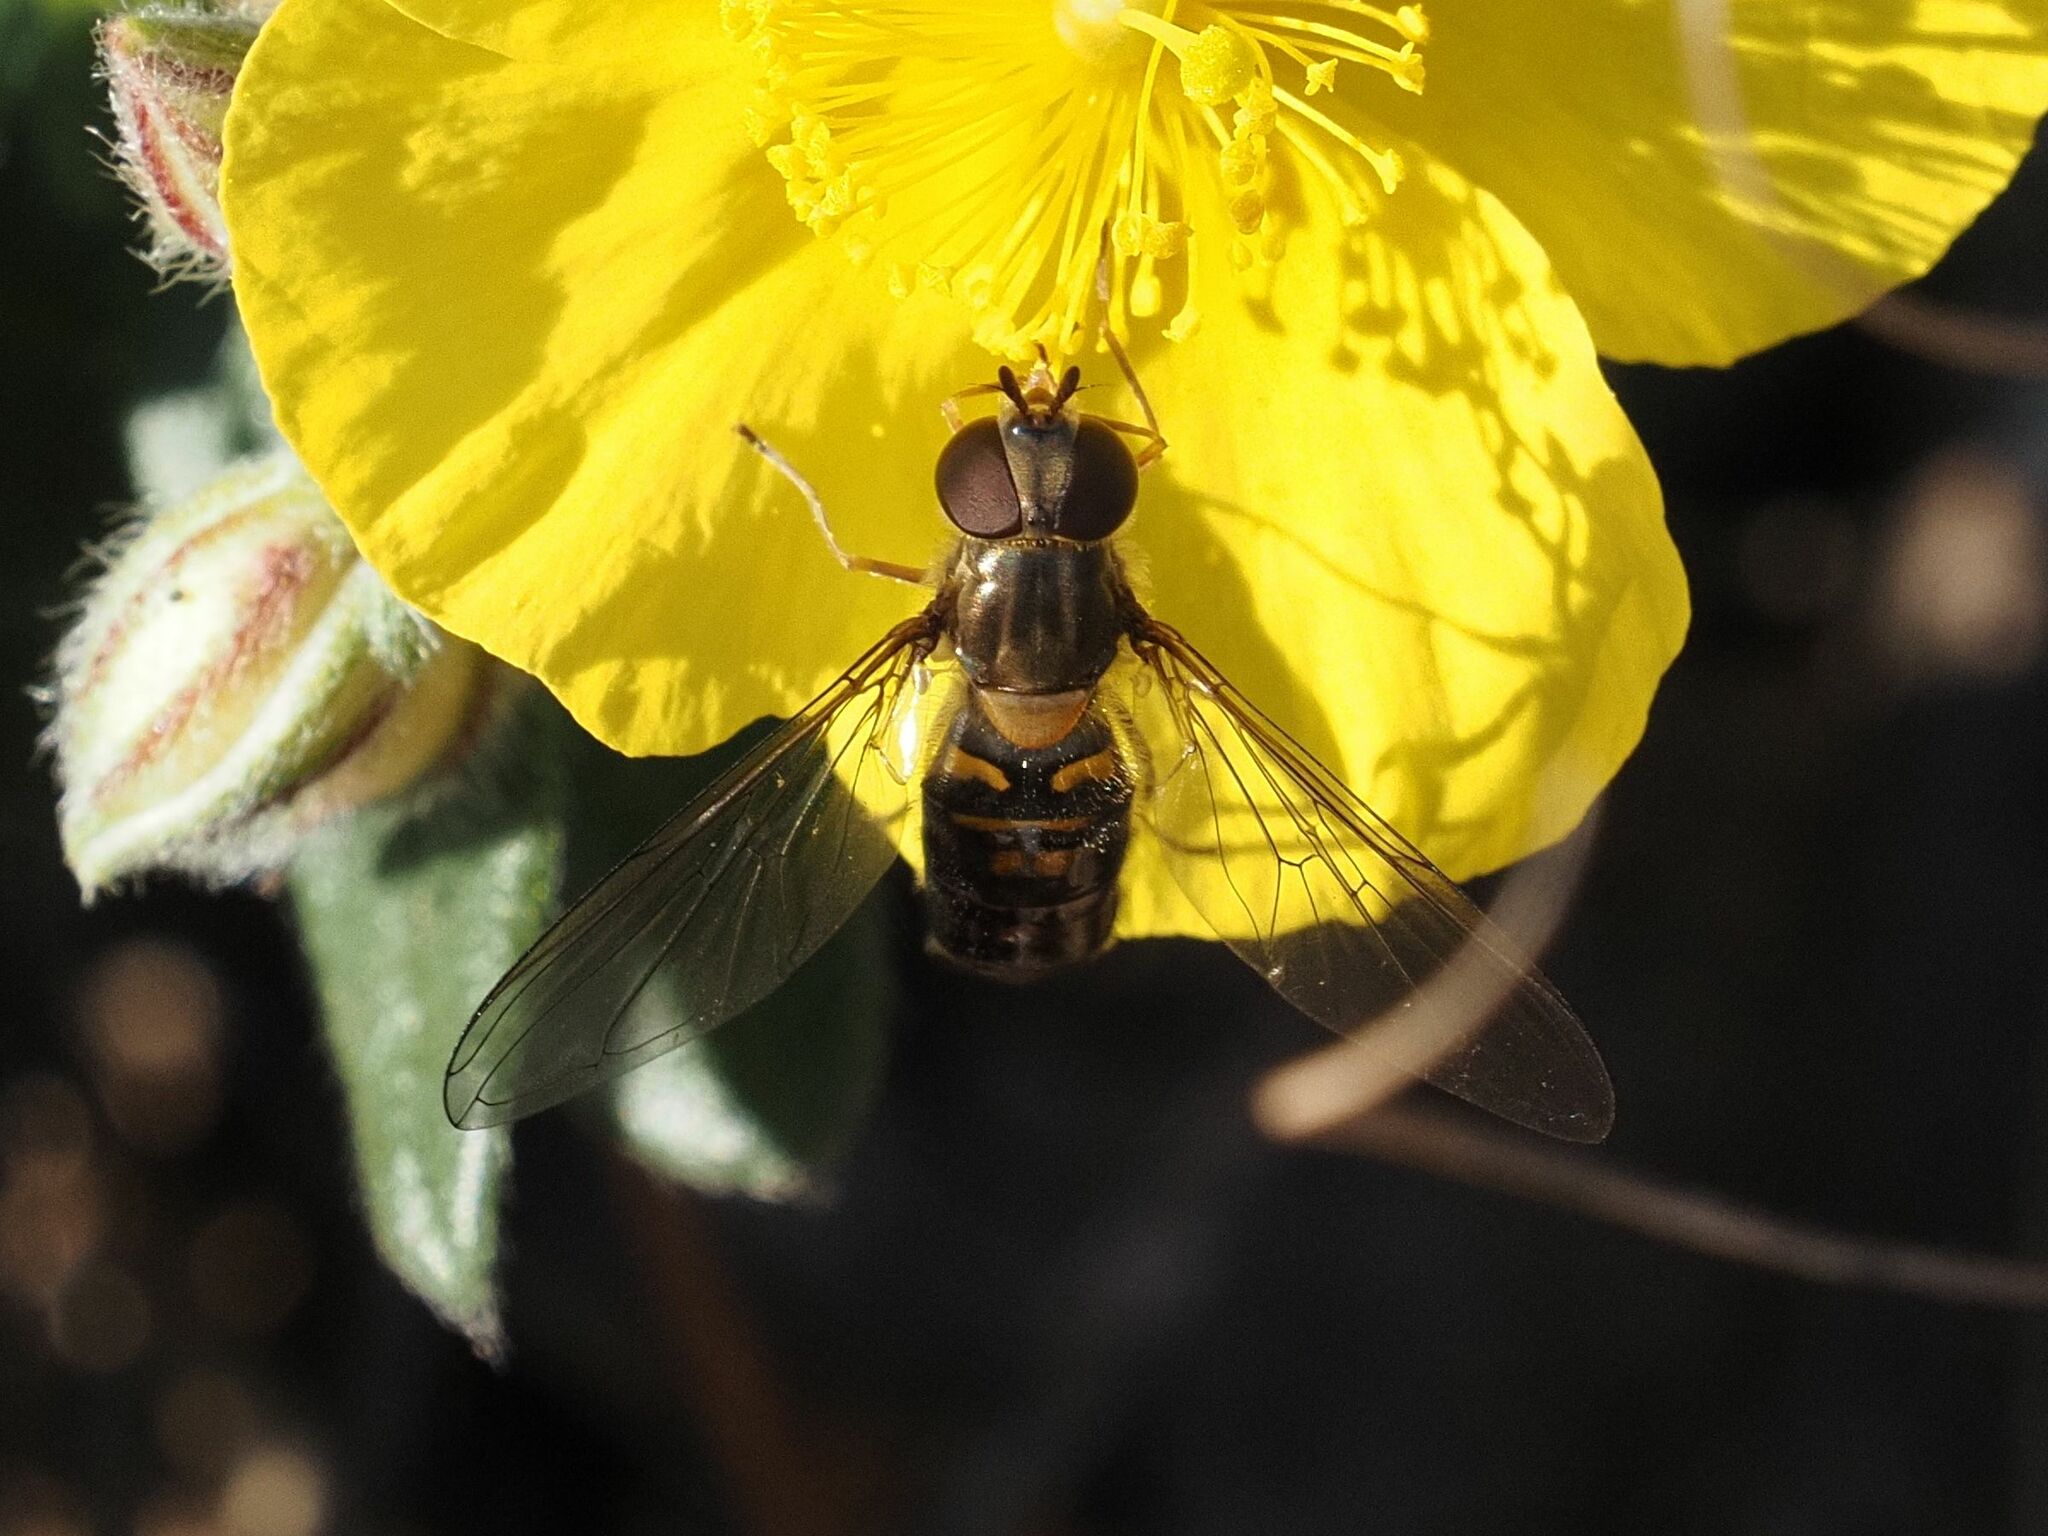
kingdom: Animalia
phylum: Arthropoda
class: Insecta
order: Diptera
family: Syrphidae
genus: Episyrphus
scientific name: Episyrphus balteatus
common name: Marmalade hoverfly
